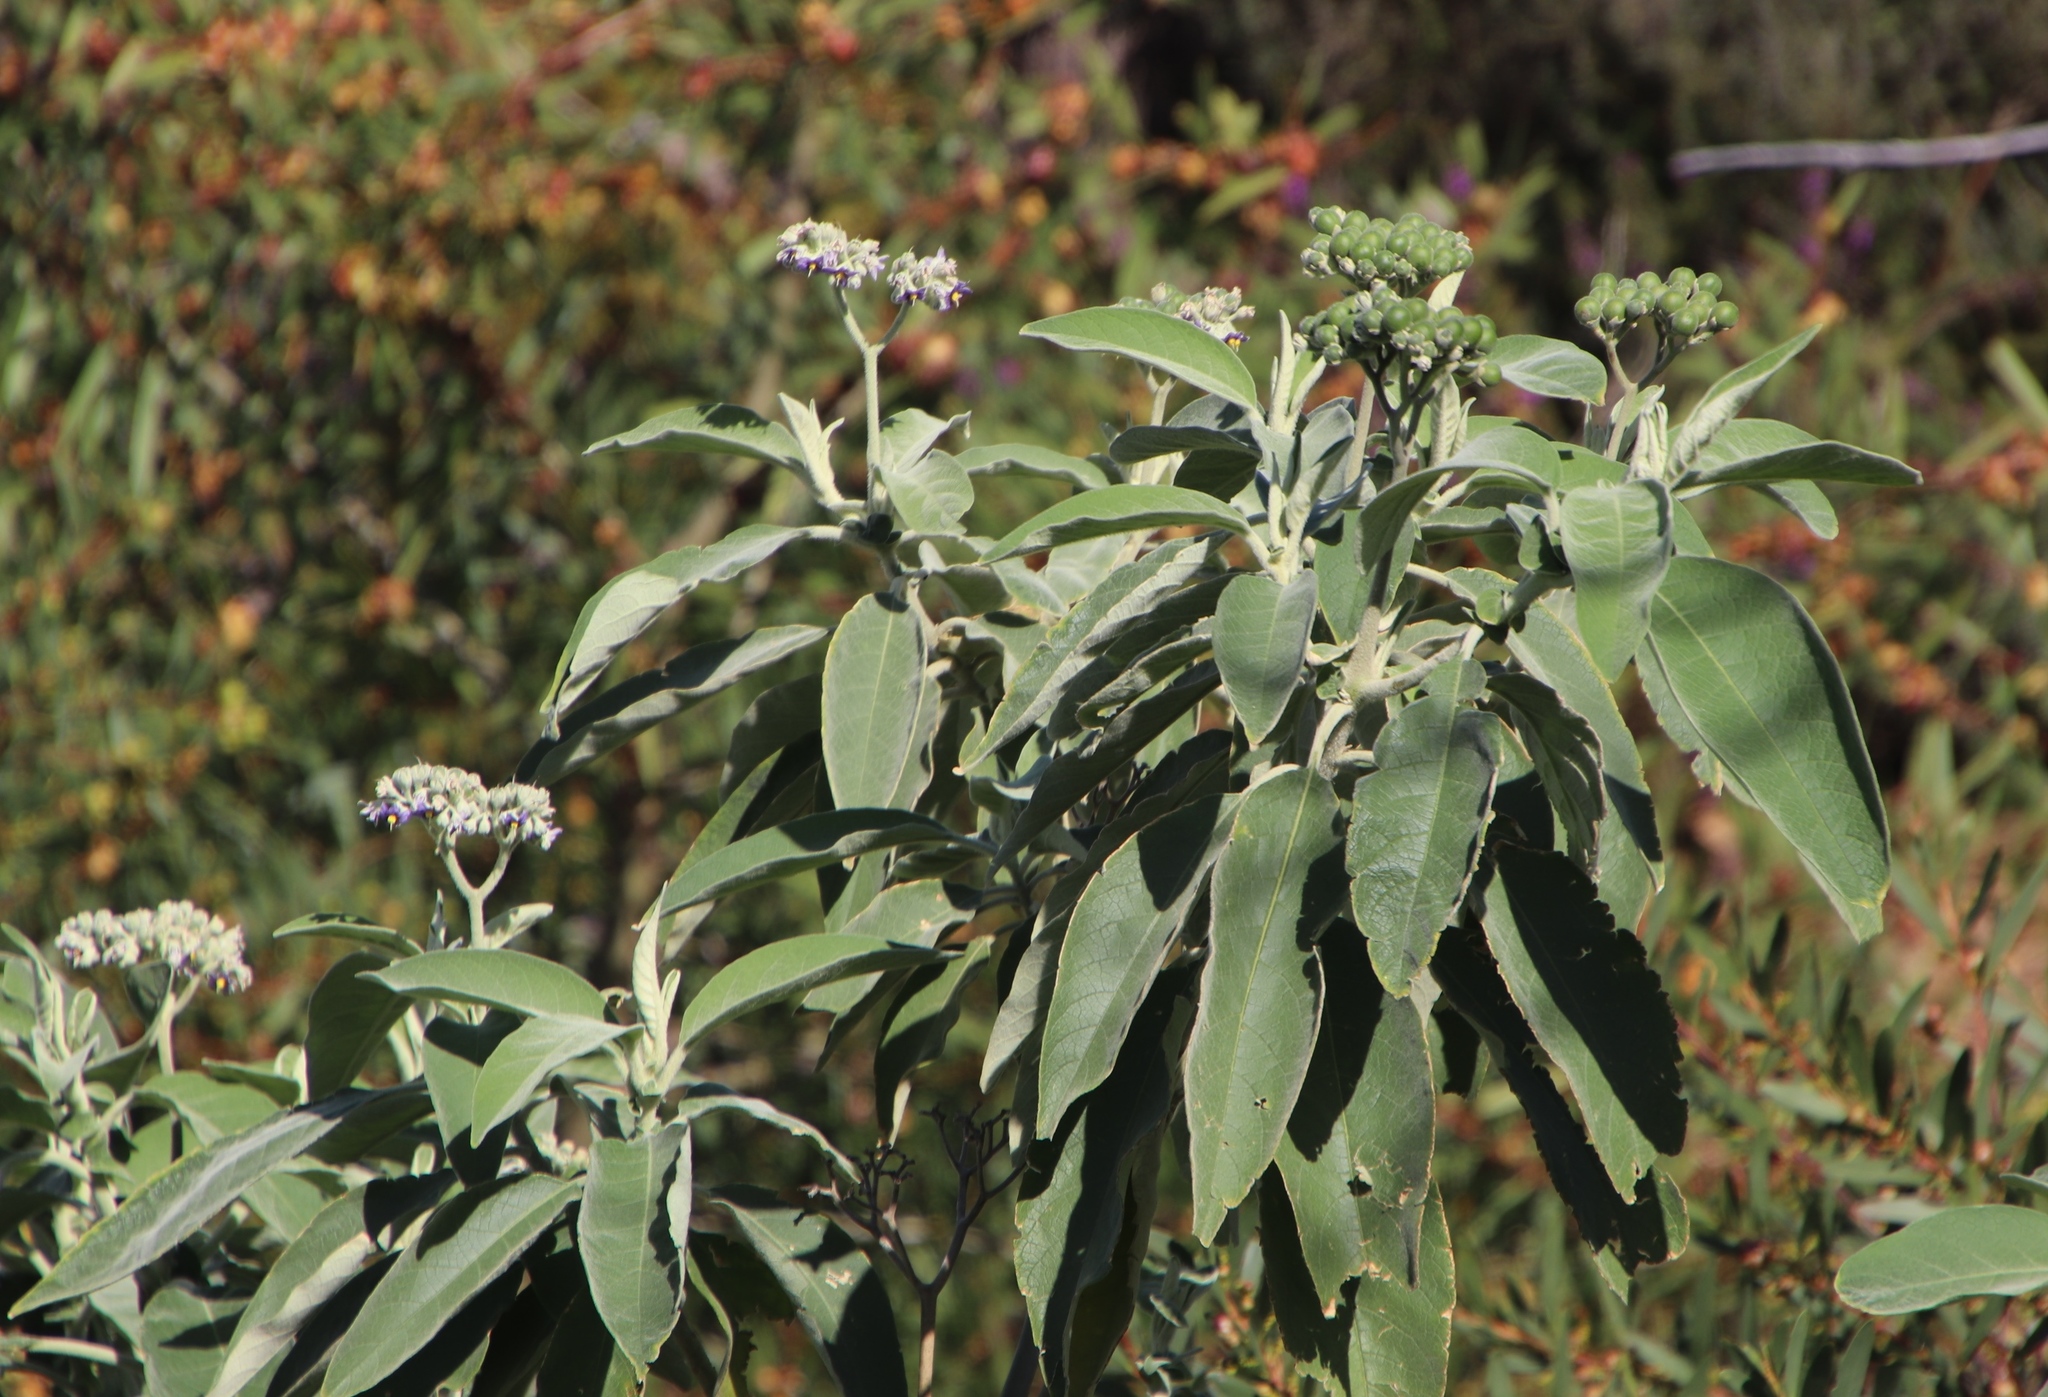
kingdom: Plantae
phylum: Tracheophyta
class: Magnoliopsida
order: Solanales
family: Solanaceae
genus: Solanum
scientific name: Solanum mauritianum
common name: Earleaf nightshade
